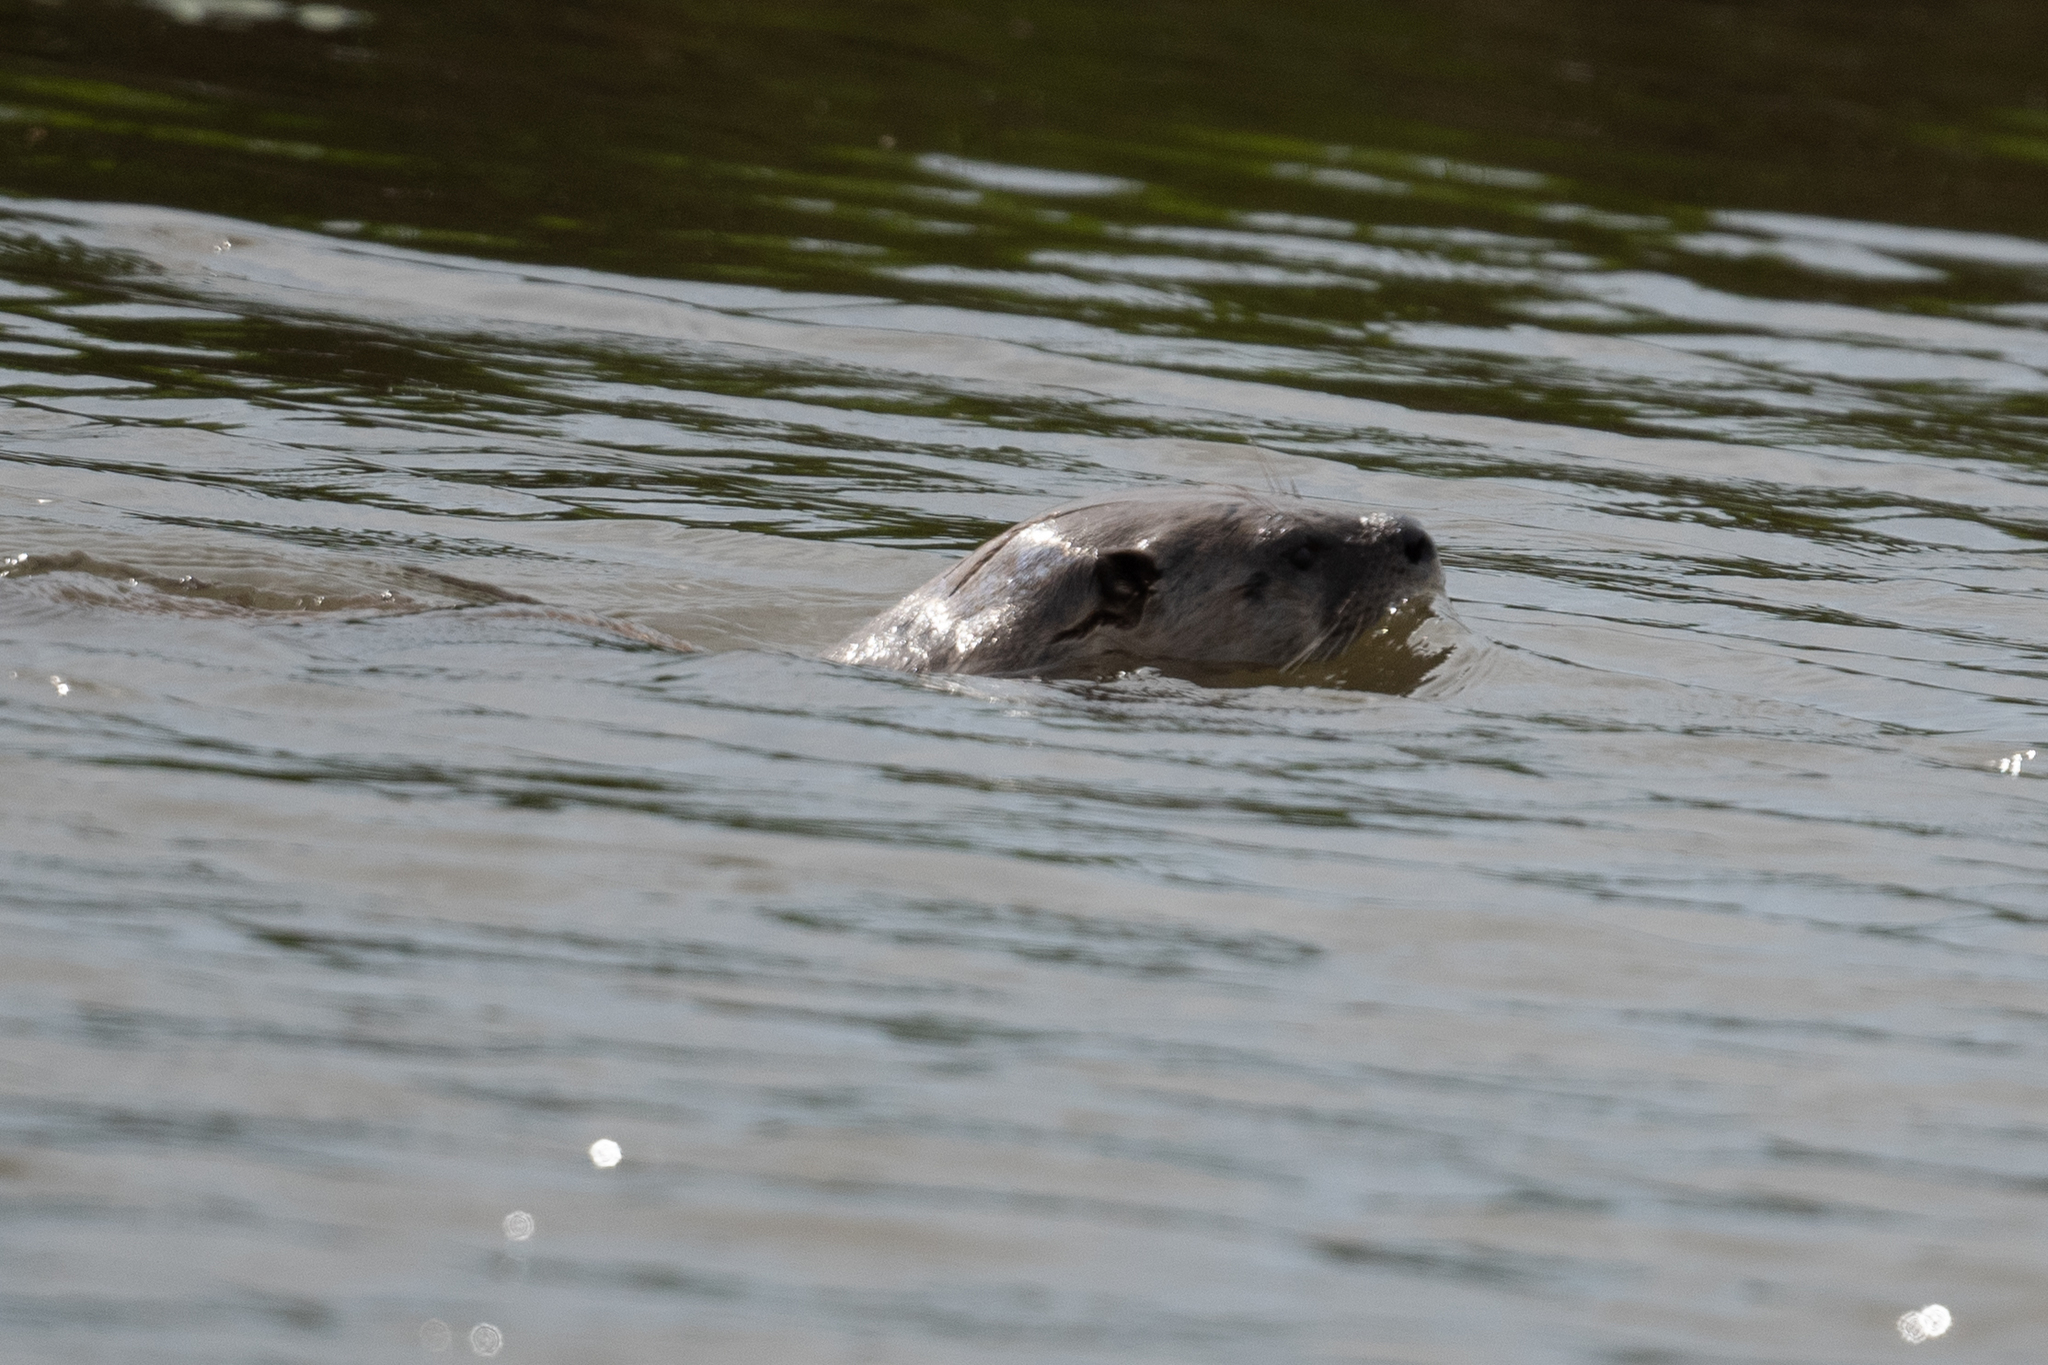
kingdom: Animalia
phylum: Chordata
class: Mammalia
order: Carnivora
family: Mustelidae
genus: Lontra
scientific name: Lontra canadensis
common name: North american river otter
